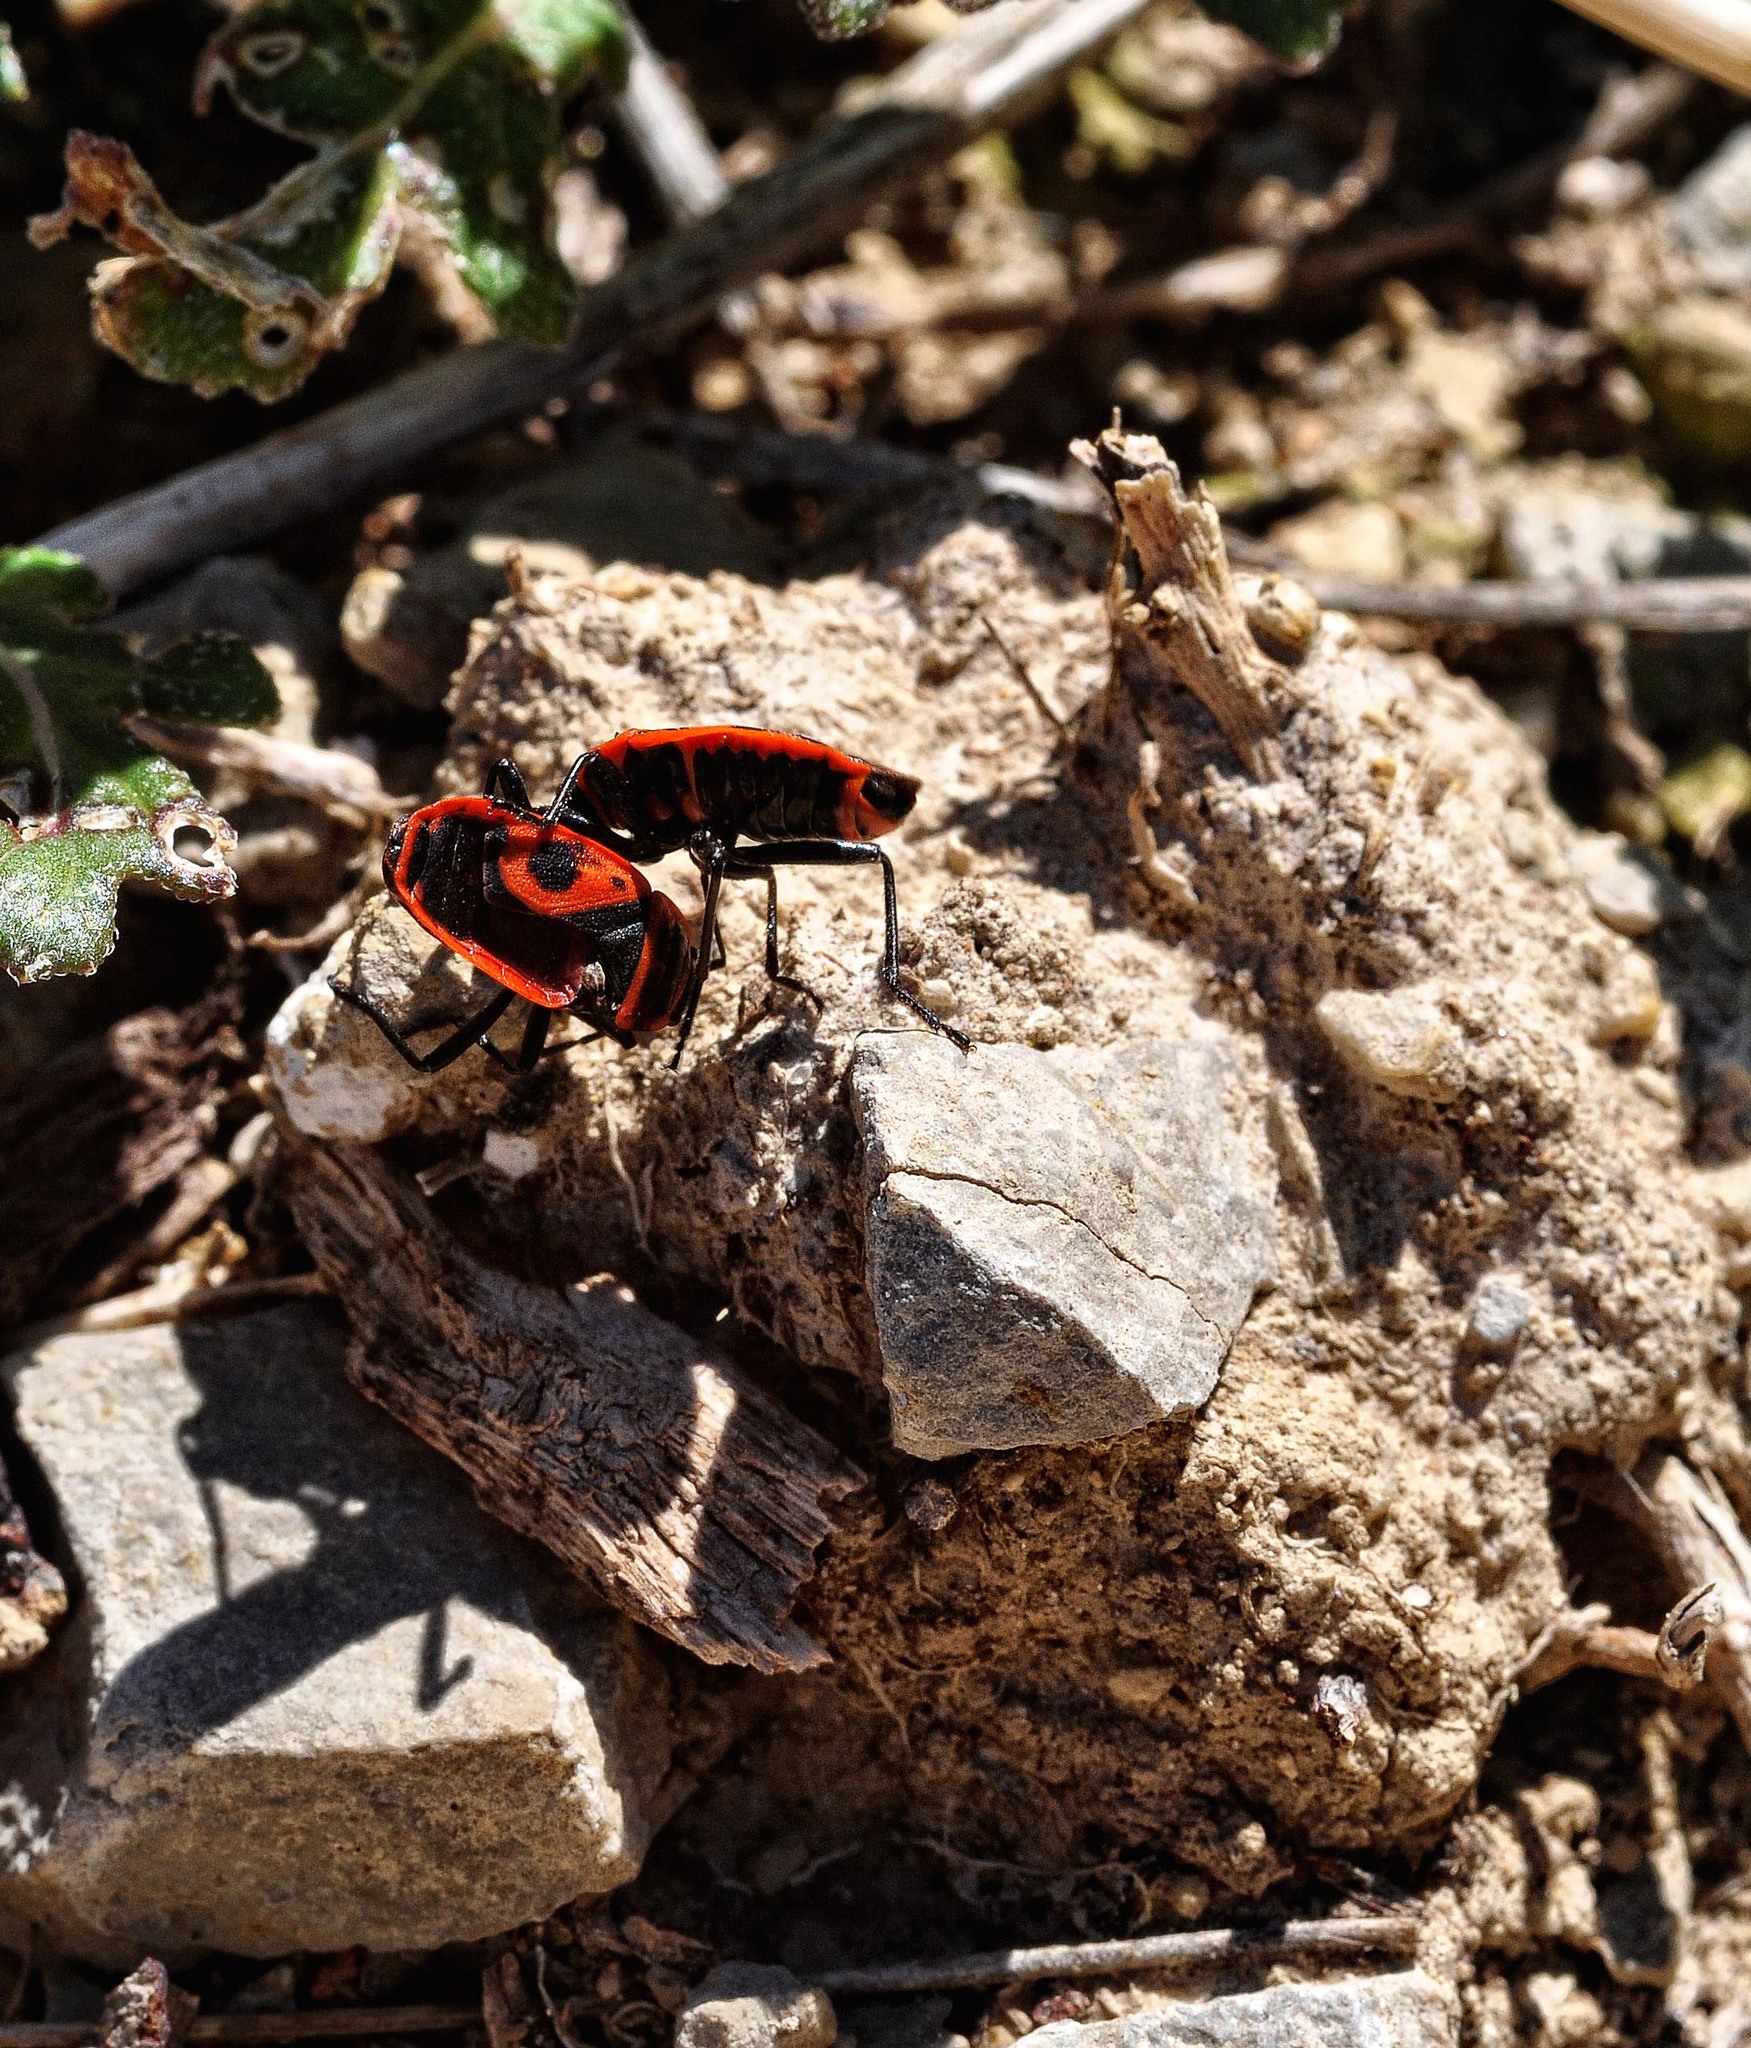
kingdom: Animalia
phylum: Arthropoda
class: Insecta
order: Hemiptera
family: Pyrrhocoridae
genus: Pyrrhocoris
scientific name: Pyrrhocoris apterus
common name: Firebug
